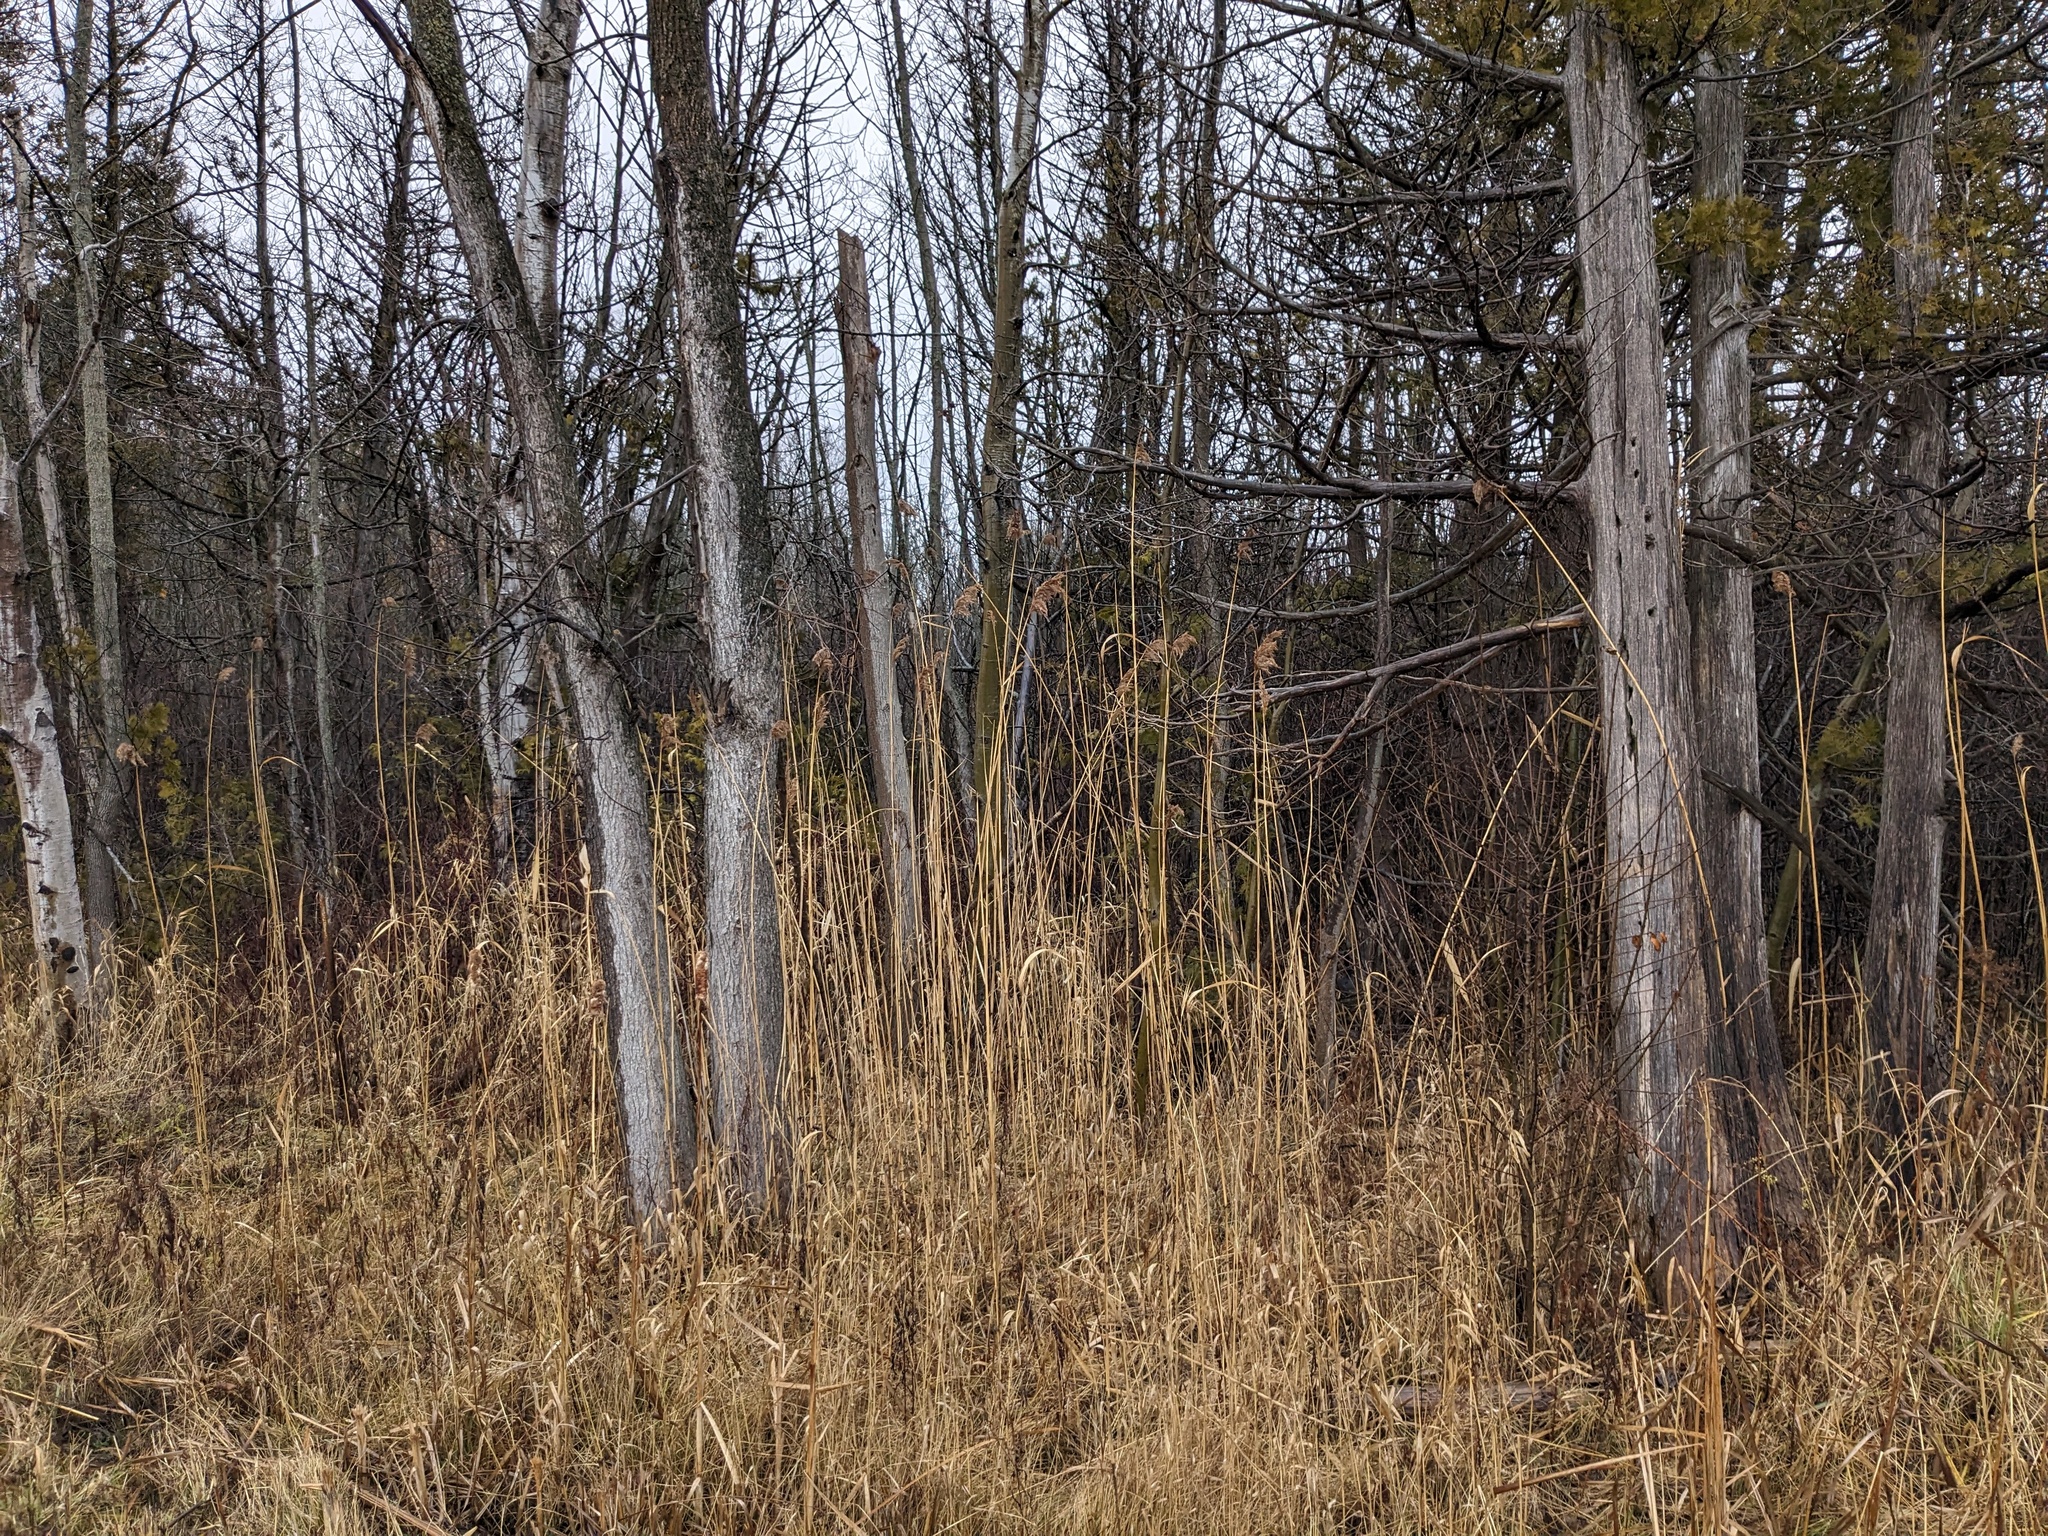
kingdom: Plantae
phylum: Tracheophyta
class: Liliopsida
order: Poales
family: Poaceae
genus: Phragmites
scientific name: Phragmites australis
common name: Common reed
